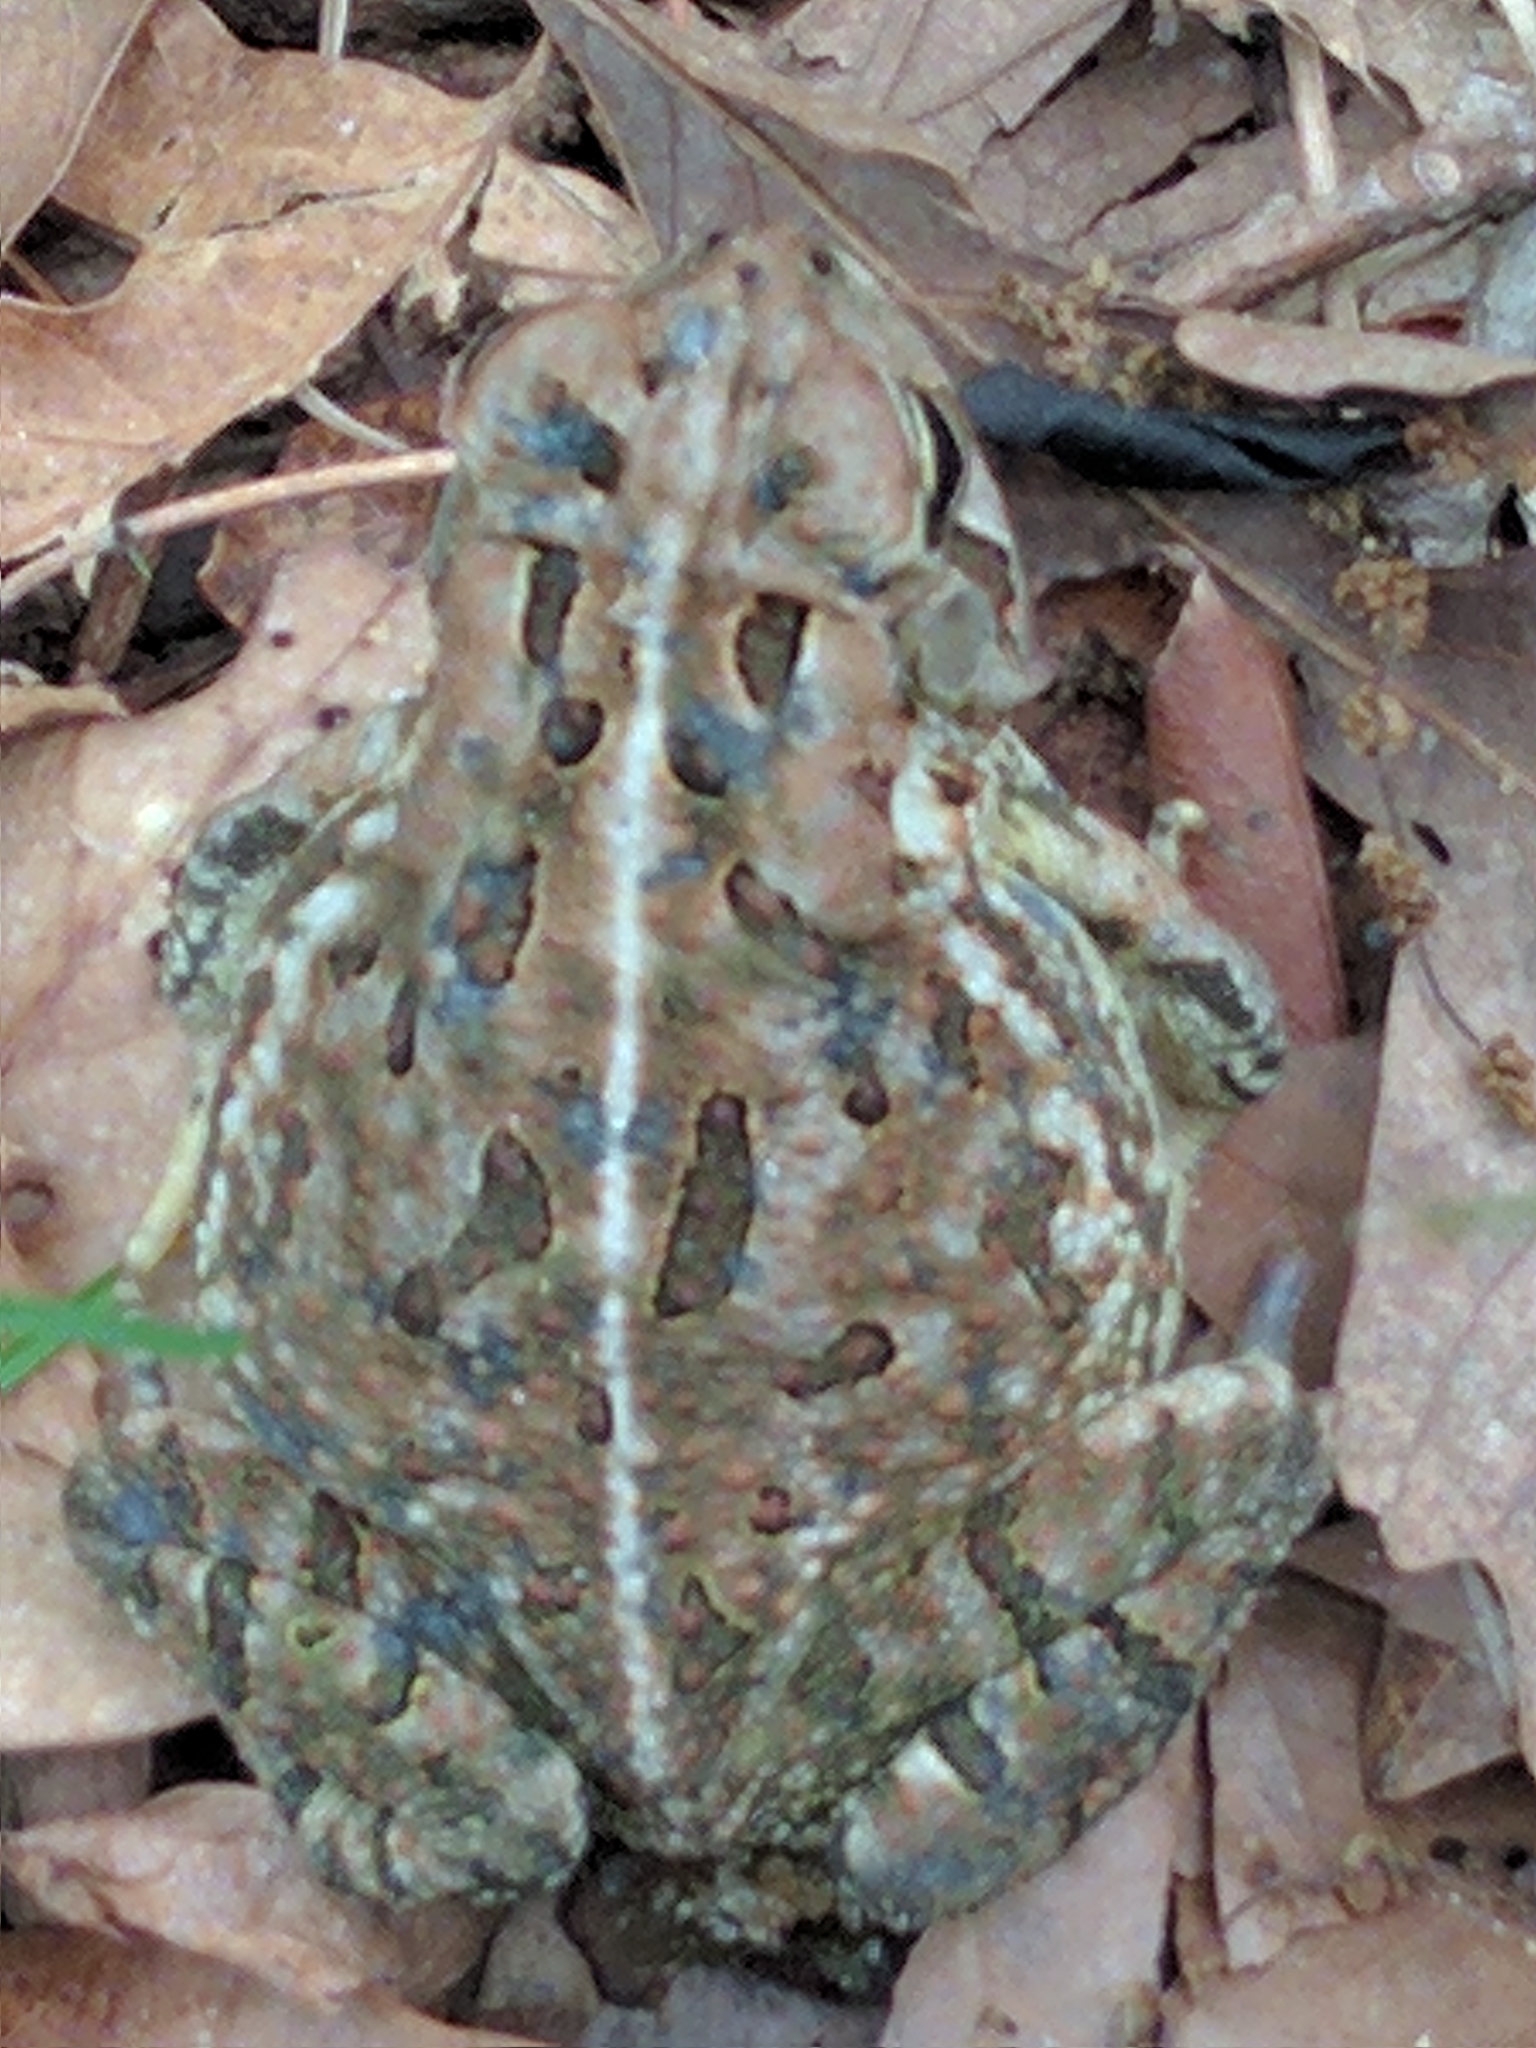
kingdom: Animalia
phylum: Chordata
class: Amphibia
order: Anura
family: Bufonidae
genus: Anaxyrus
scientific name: Anaxyrus fowleri
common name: Fowler's toad
